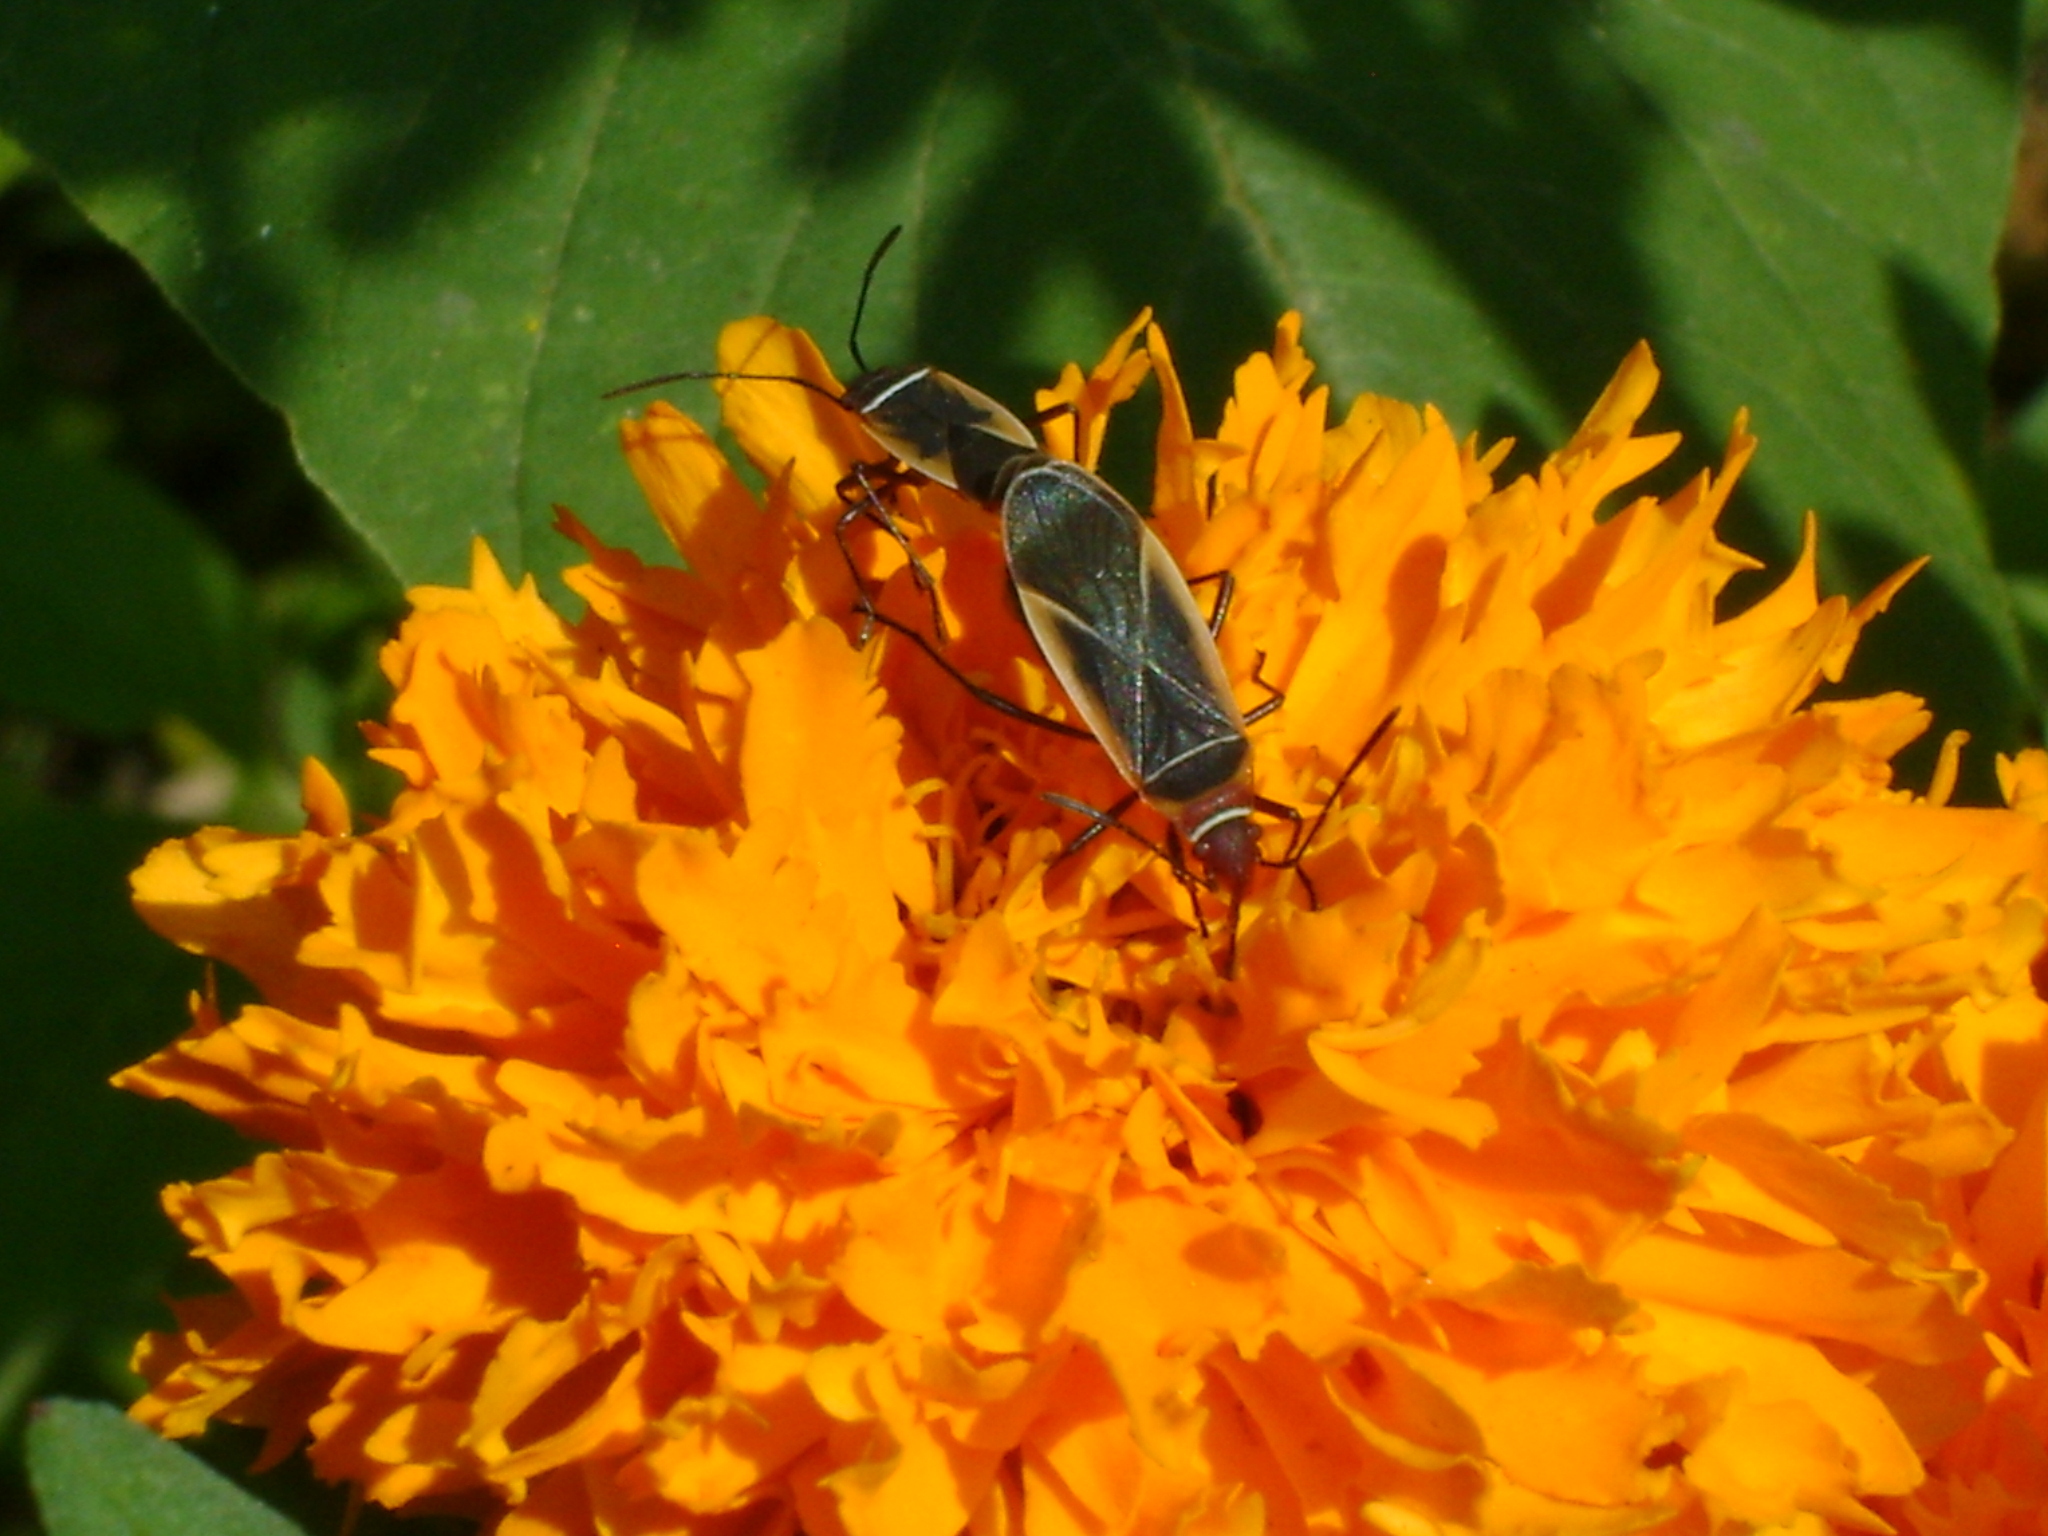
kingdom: Animalia
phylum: Arthropoda
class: Insecta
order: Hemiptera
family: Pyrrhocoridae
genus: Dysdercus
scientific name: Dysdercus mimulus
